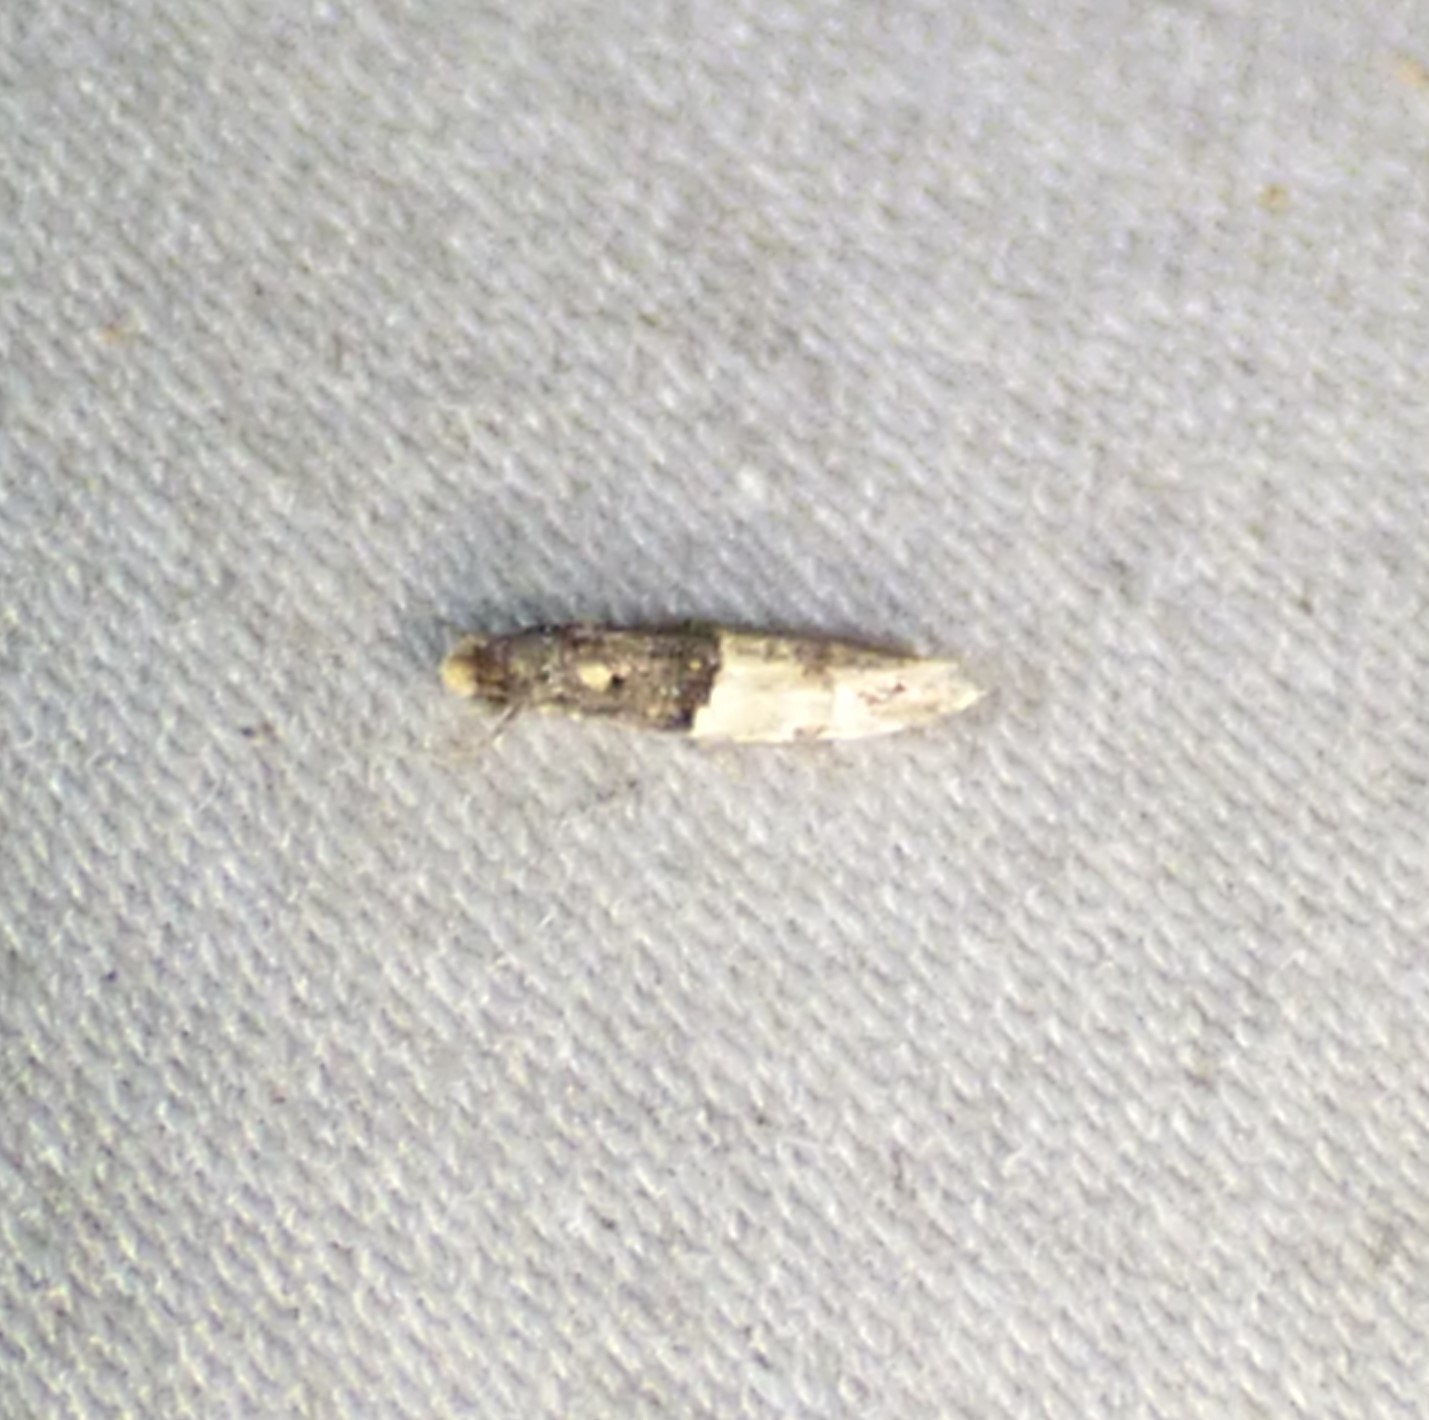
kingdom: Animalia
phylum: Arthropoda
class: Insecta
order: Lepidoptera
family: Meessiidae
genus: Oenoe
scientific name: Oenoe hybromella
